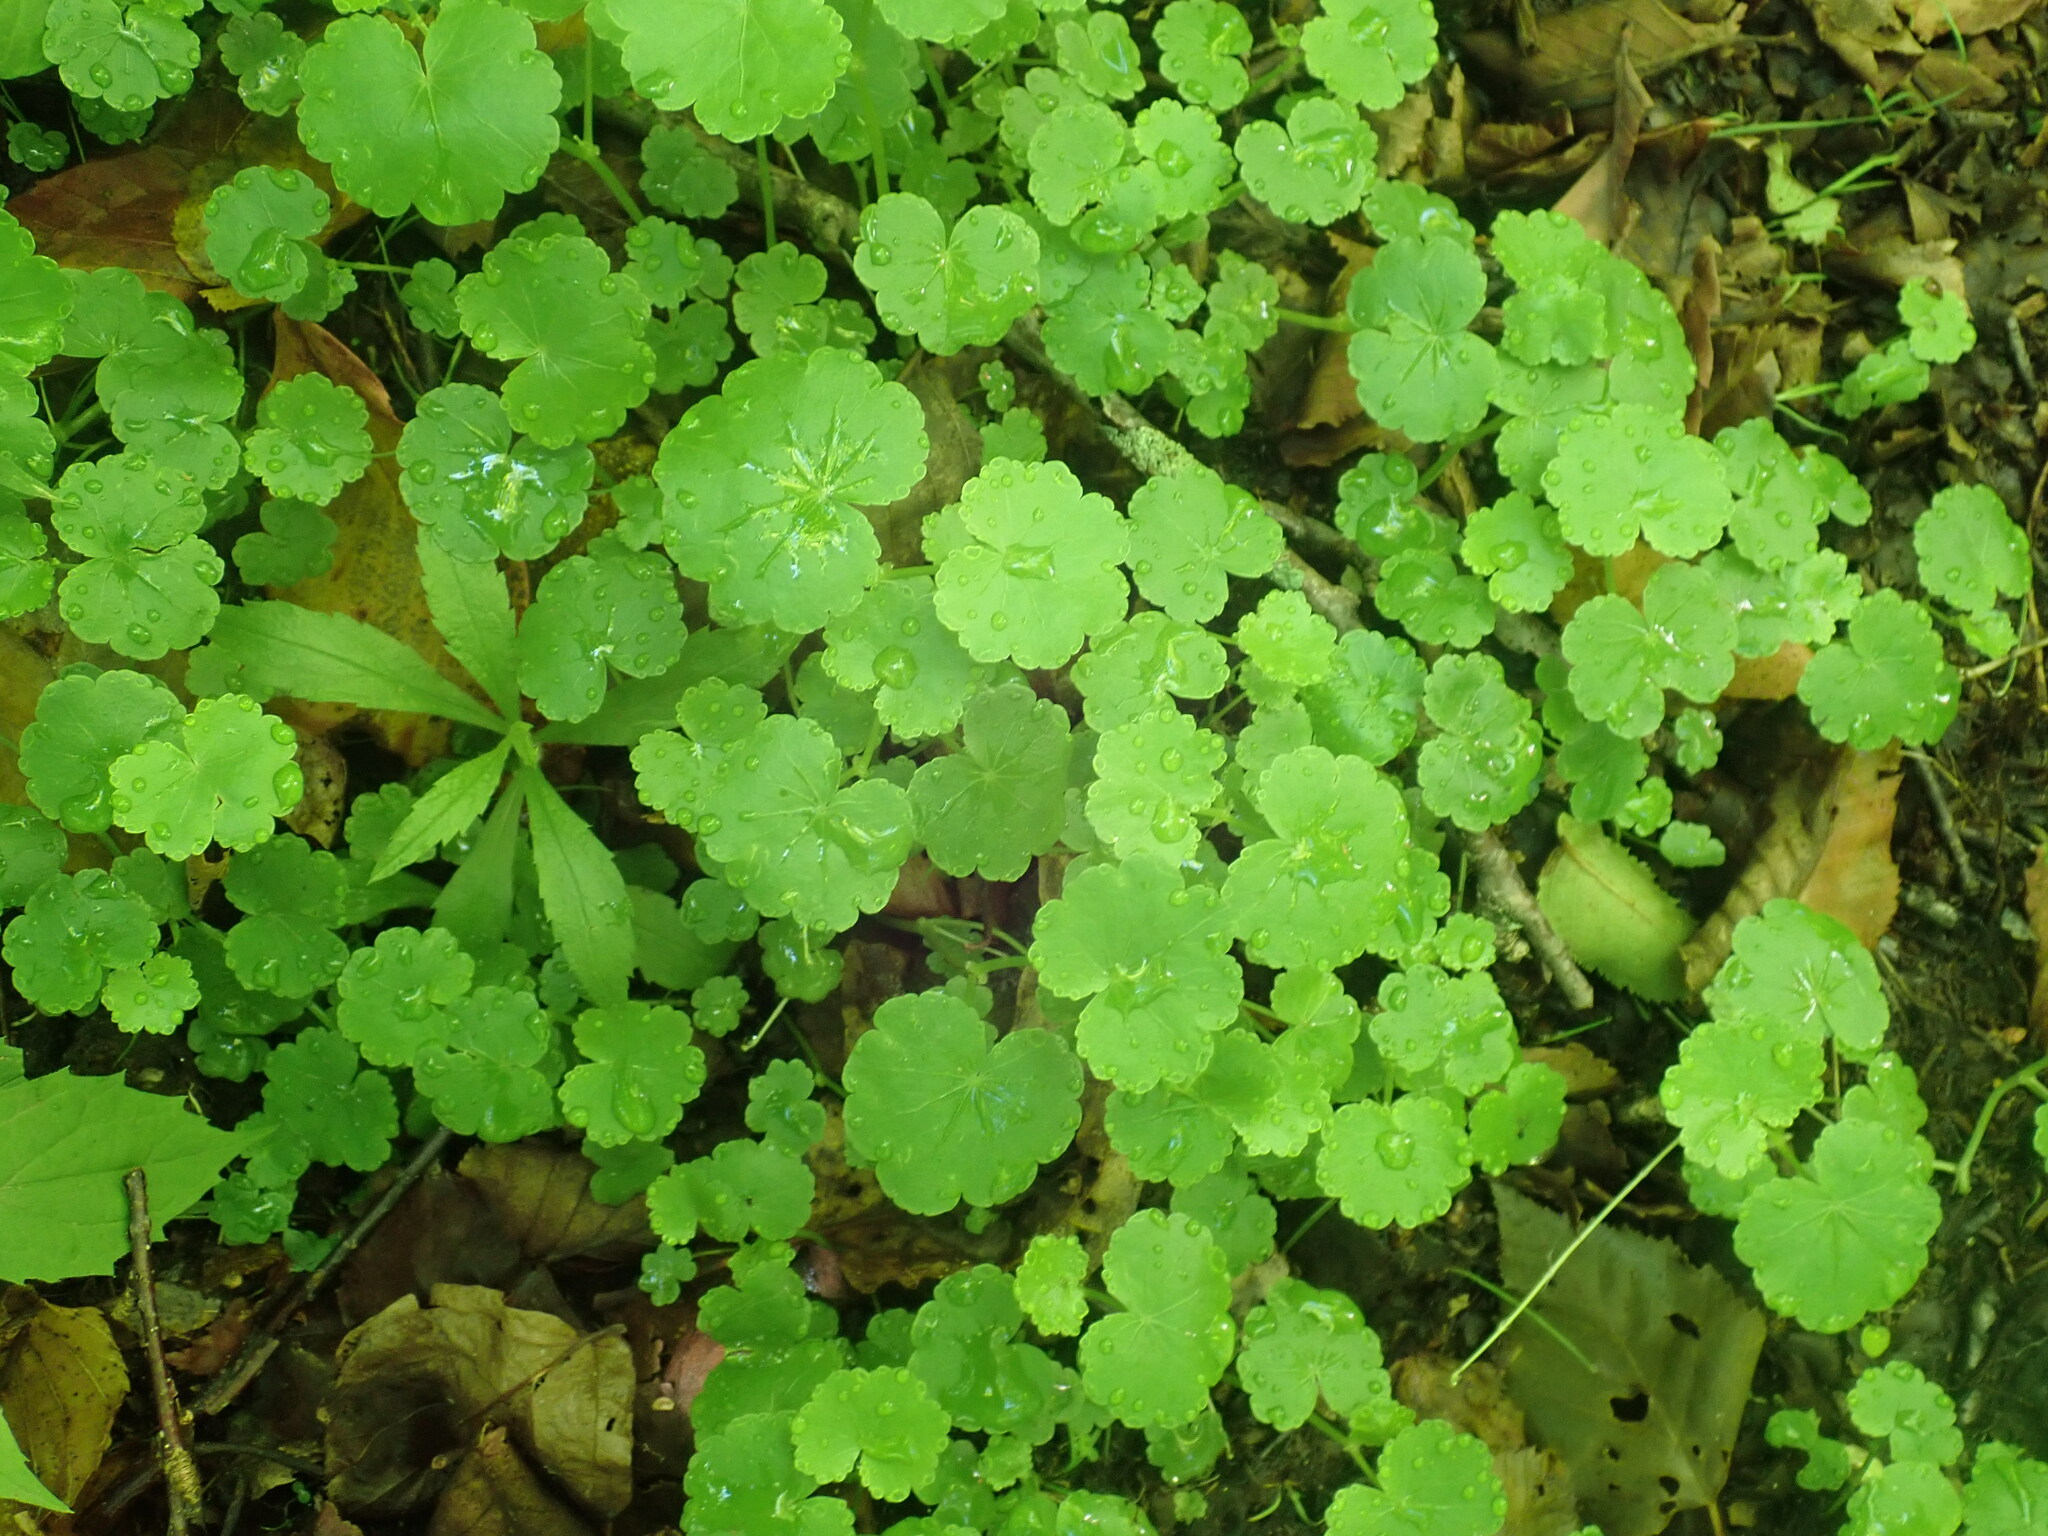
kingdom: Plantae
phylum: Tracheophyta
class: Magnoliopsida
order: Apiales
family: Araliaceae
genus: Hydrocotyle
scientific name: Hydrocotyle americana
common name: American water-pennywort
